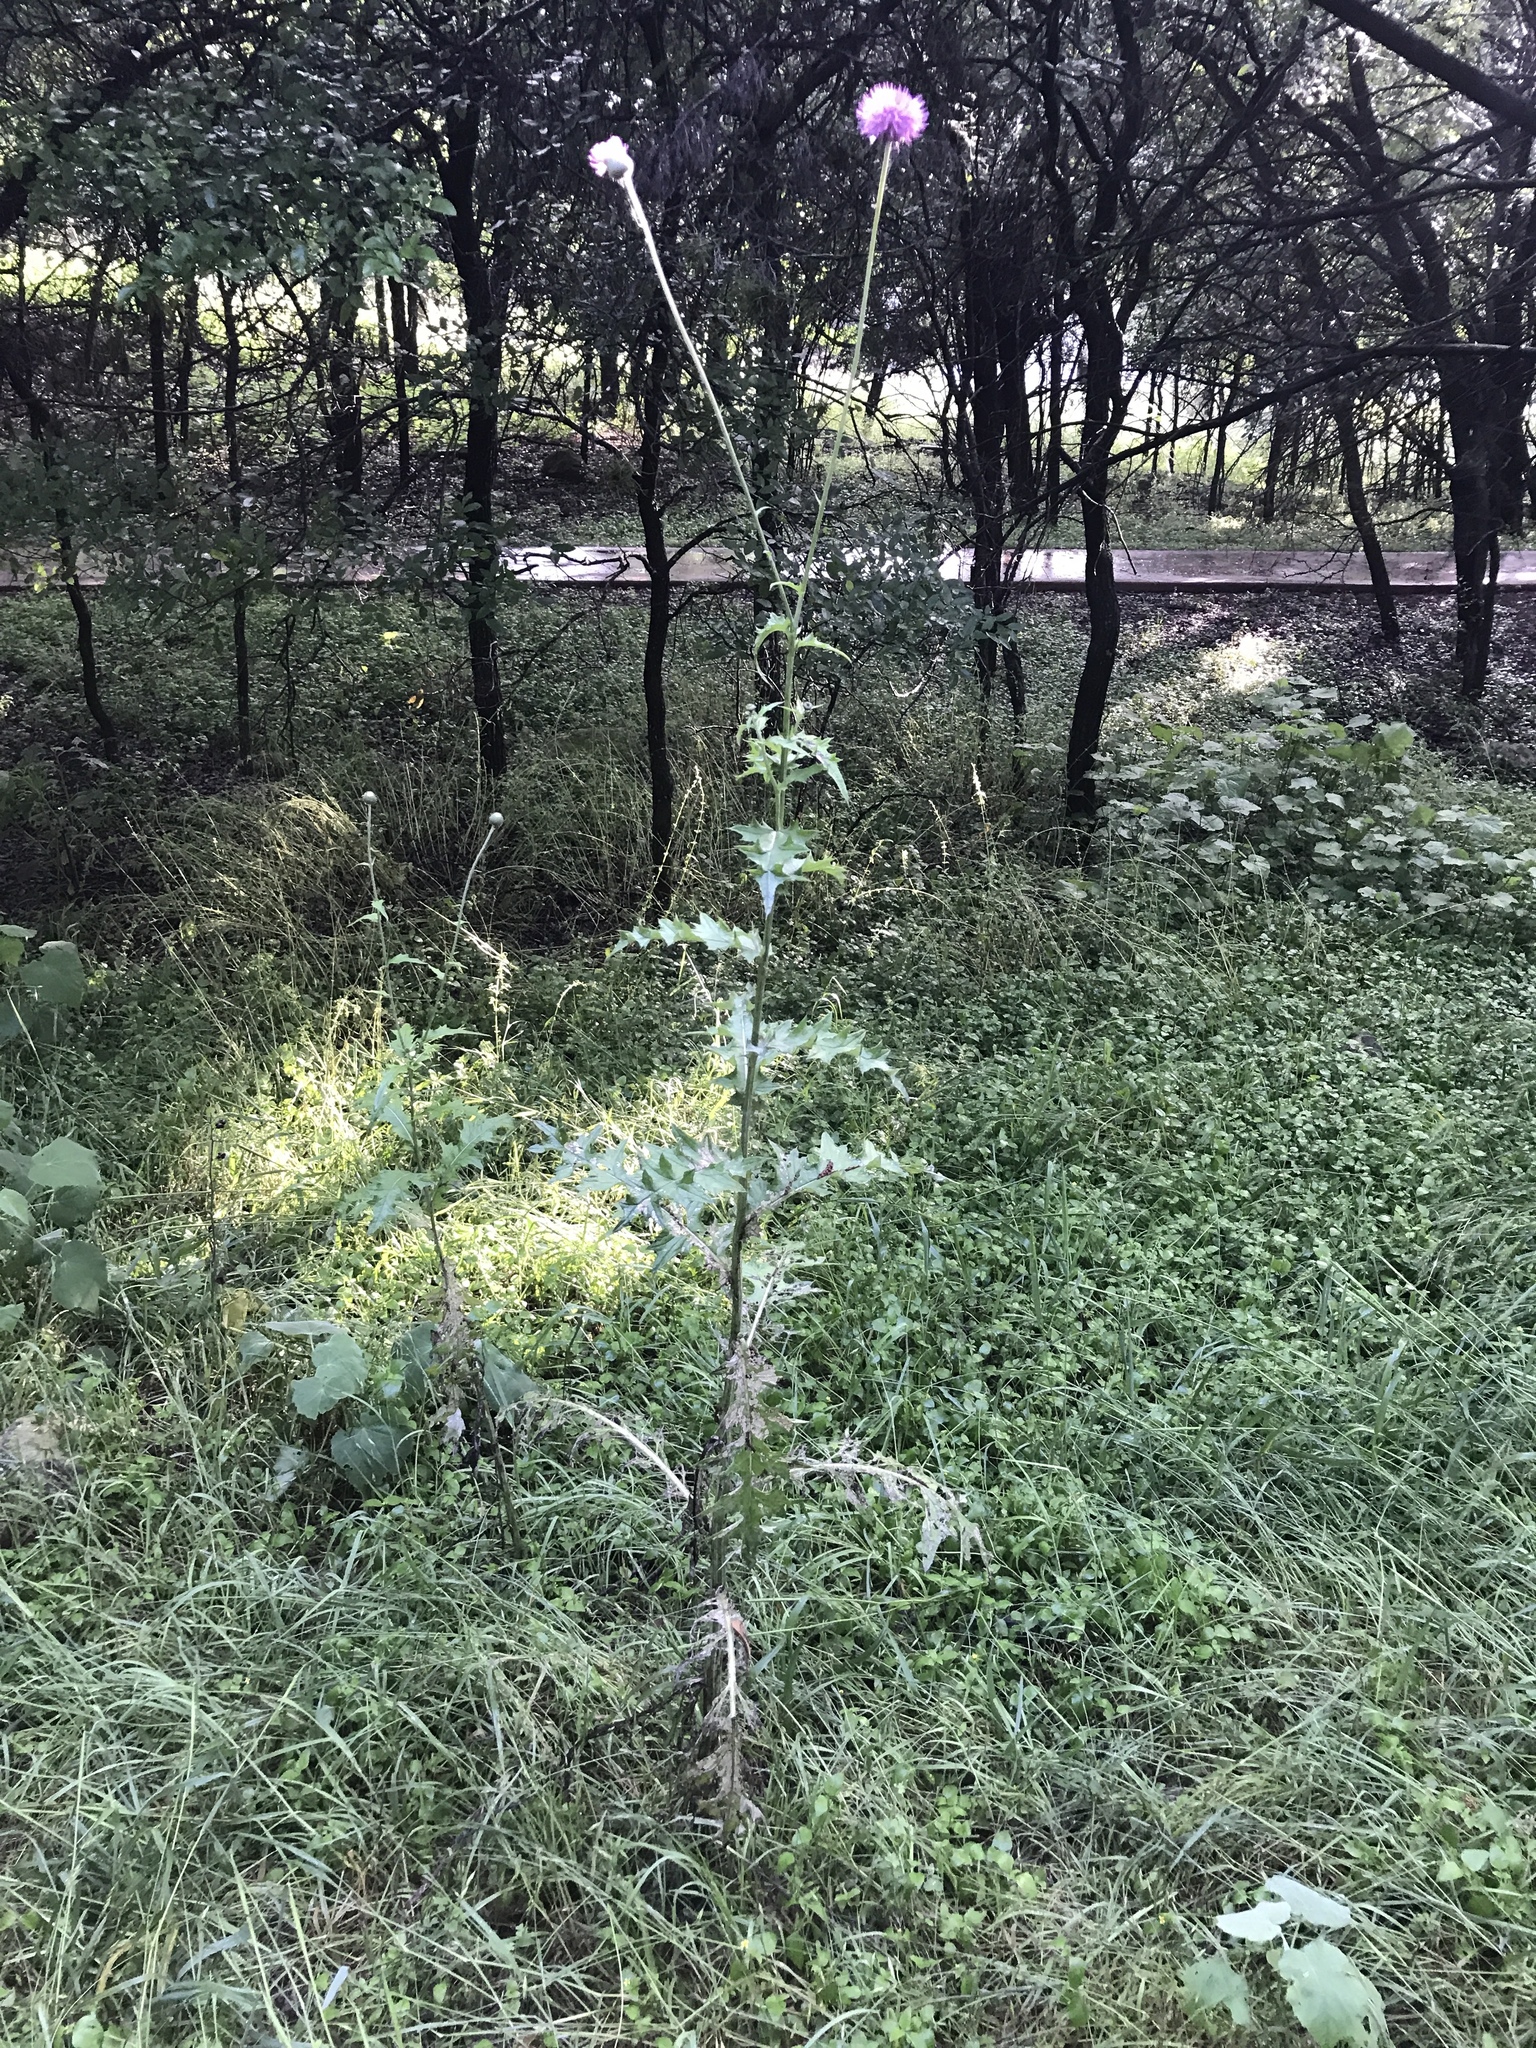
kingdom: Plantae
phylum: Tracheophyta
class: Magnoliopsida
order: Asterales
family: Asteraceae
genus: Cirsium
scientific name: Cirsium texanum
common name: Texas purple thistle
